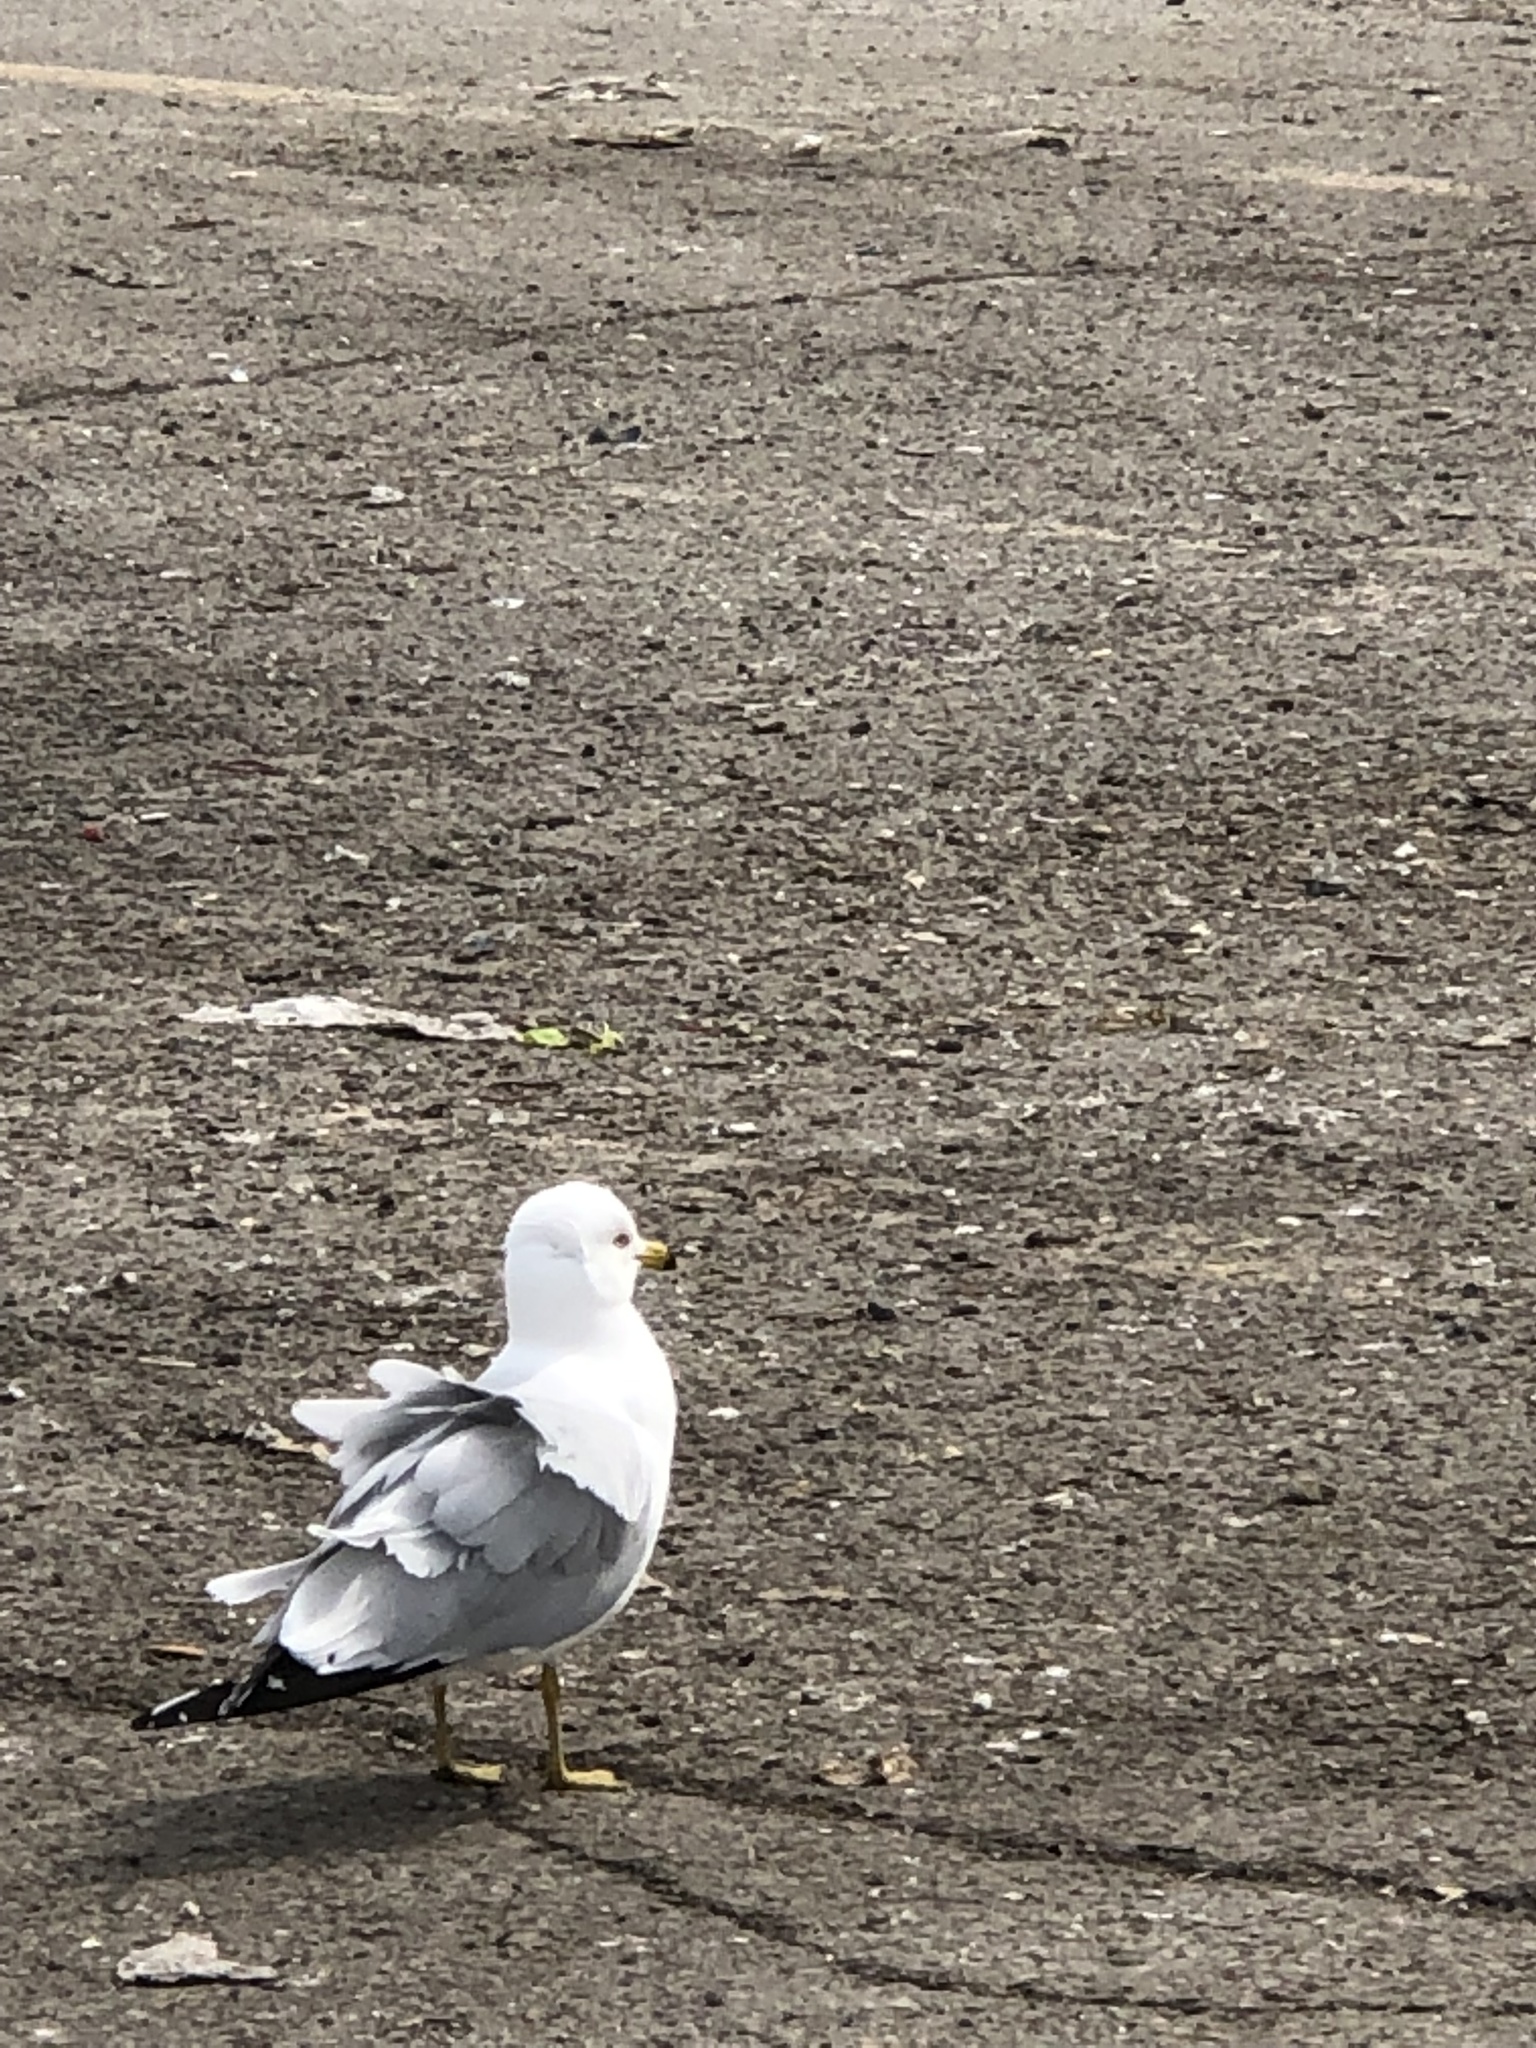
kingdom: Animalia
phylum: Chordata
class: Aves
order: Charadriiformes
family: Laridae
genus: Larus
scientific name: Larus delawarensis
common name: Ring-billed gull
